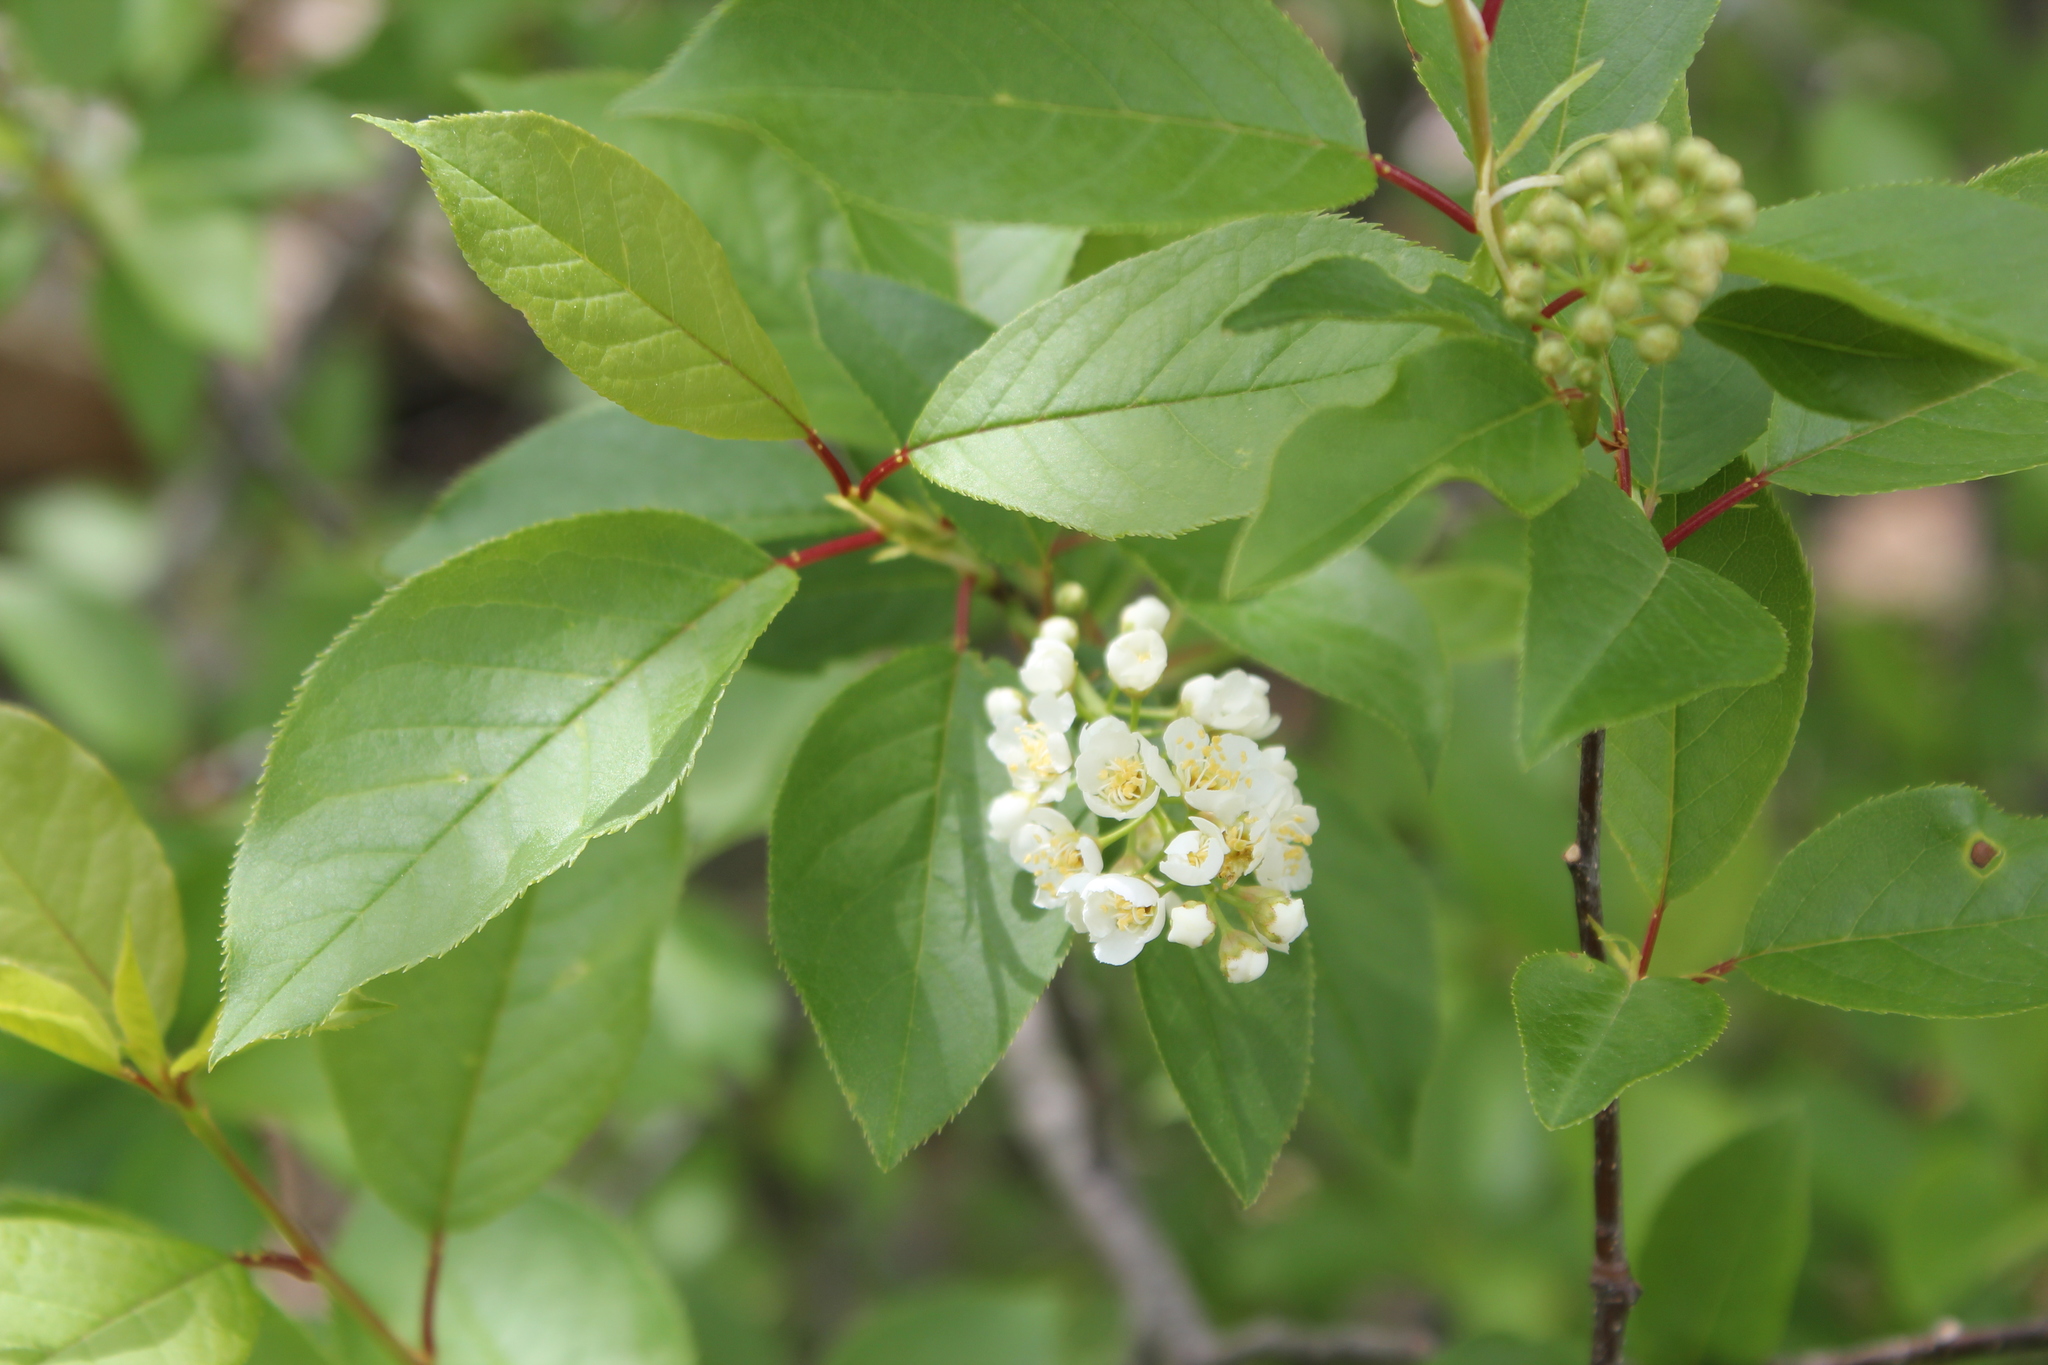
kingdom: Plantae
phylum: Tracheophyta
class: Magnoliopsida
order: Rosales
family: Rosaceae
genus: Prunus
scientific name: Prunus virginiana
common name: Chokecherry
